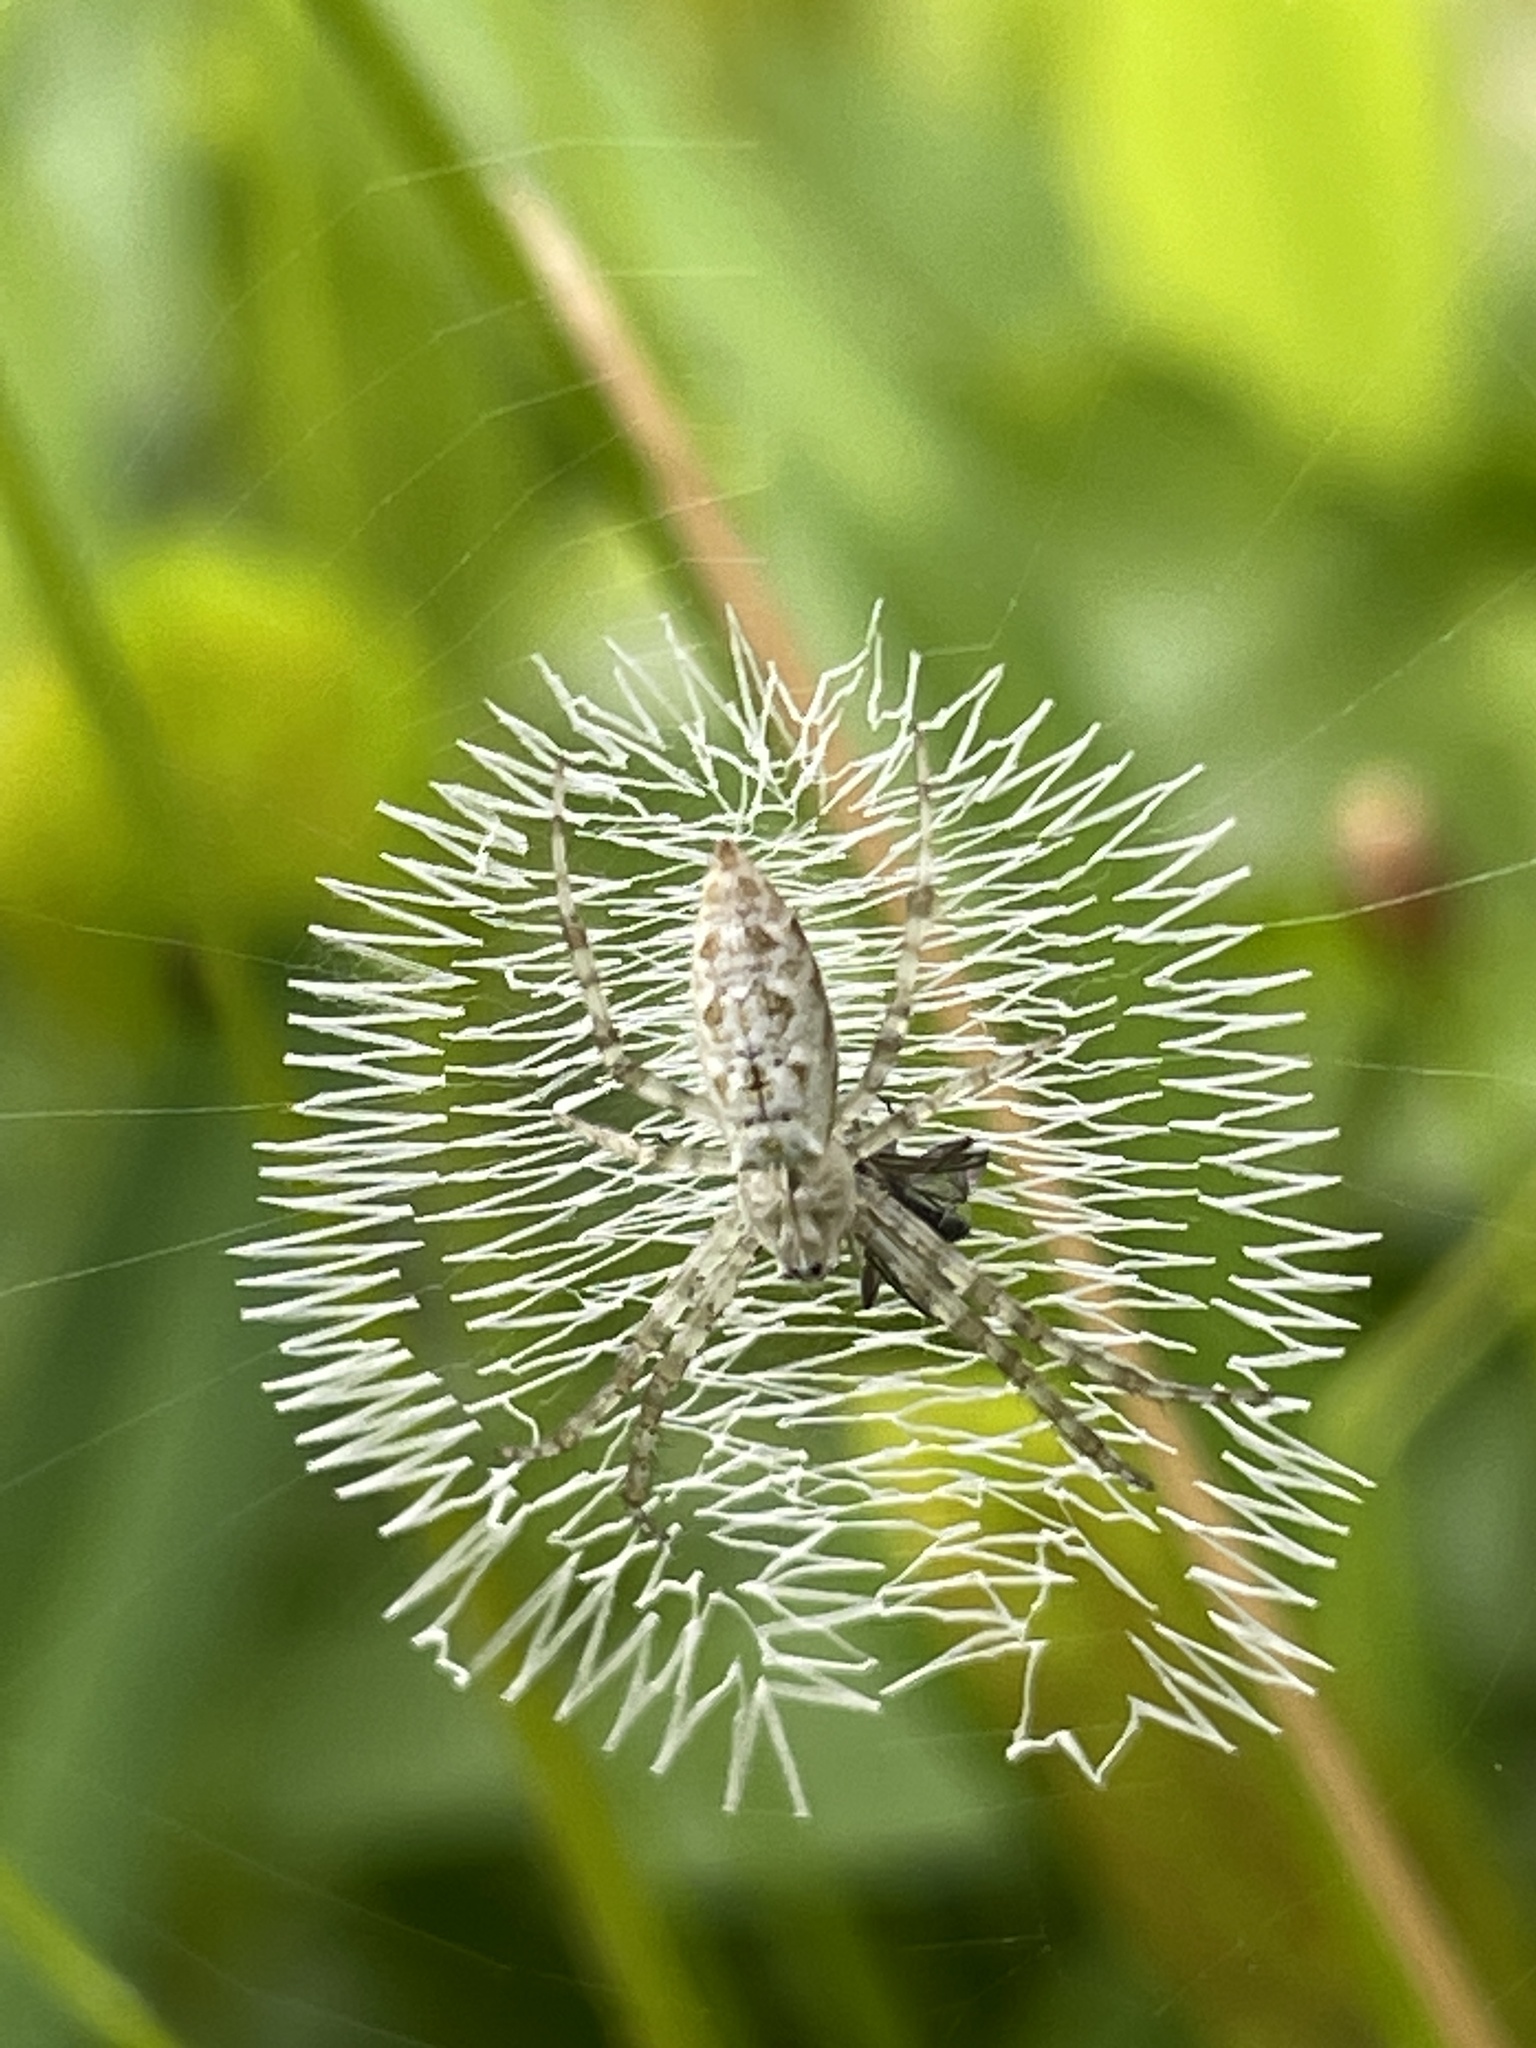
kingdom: Animalia
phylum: Arthropoda
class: Arachnida
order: Araneae
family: Araneidae
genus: Argiope
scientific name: Argiope aurantia
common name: Orb weavers
